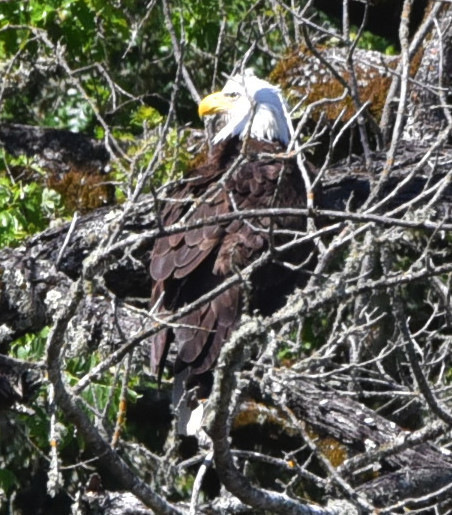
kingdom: Animalia
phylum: Chordata
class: Aves
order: Accipitriformes
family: Accipitridae
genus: Haliaeetus
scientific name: Haliaeetus leucocephalus
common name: Bald eagle
